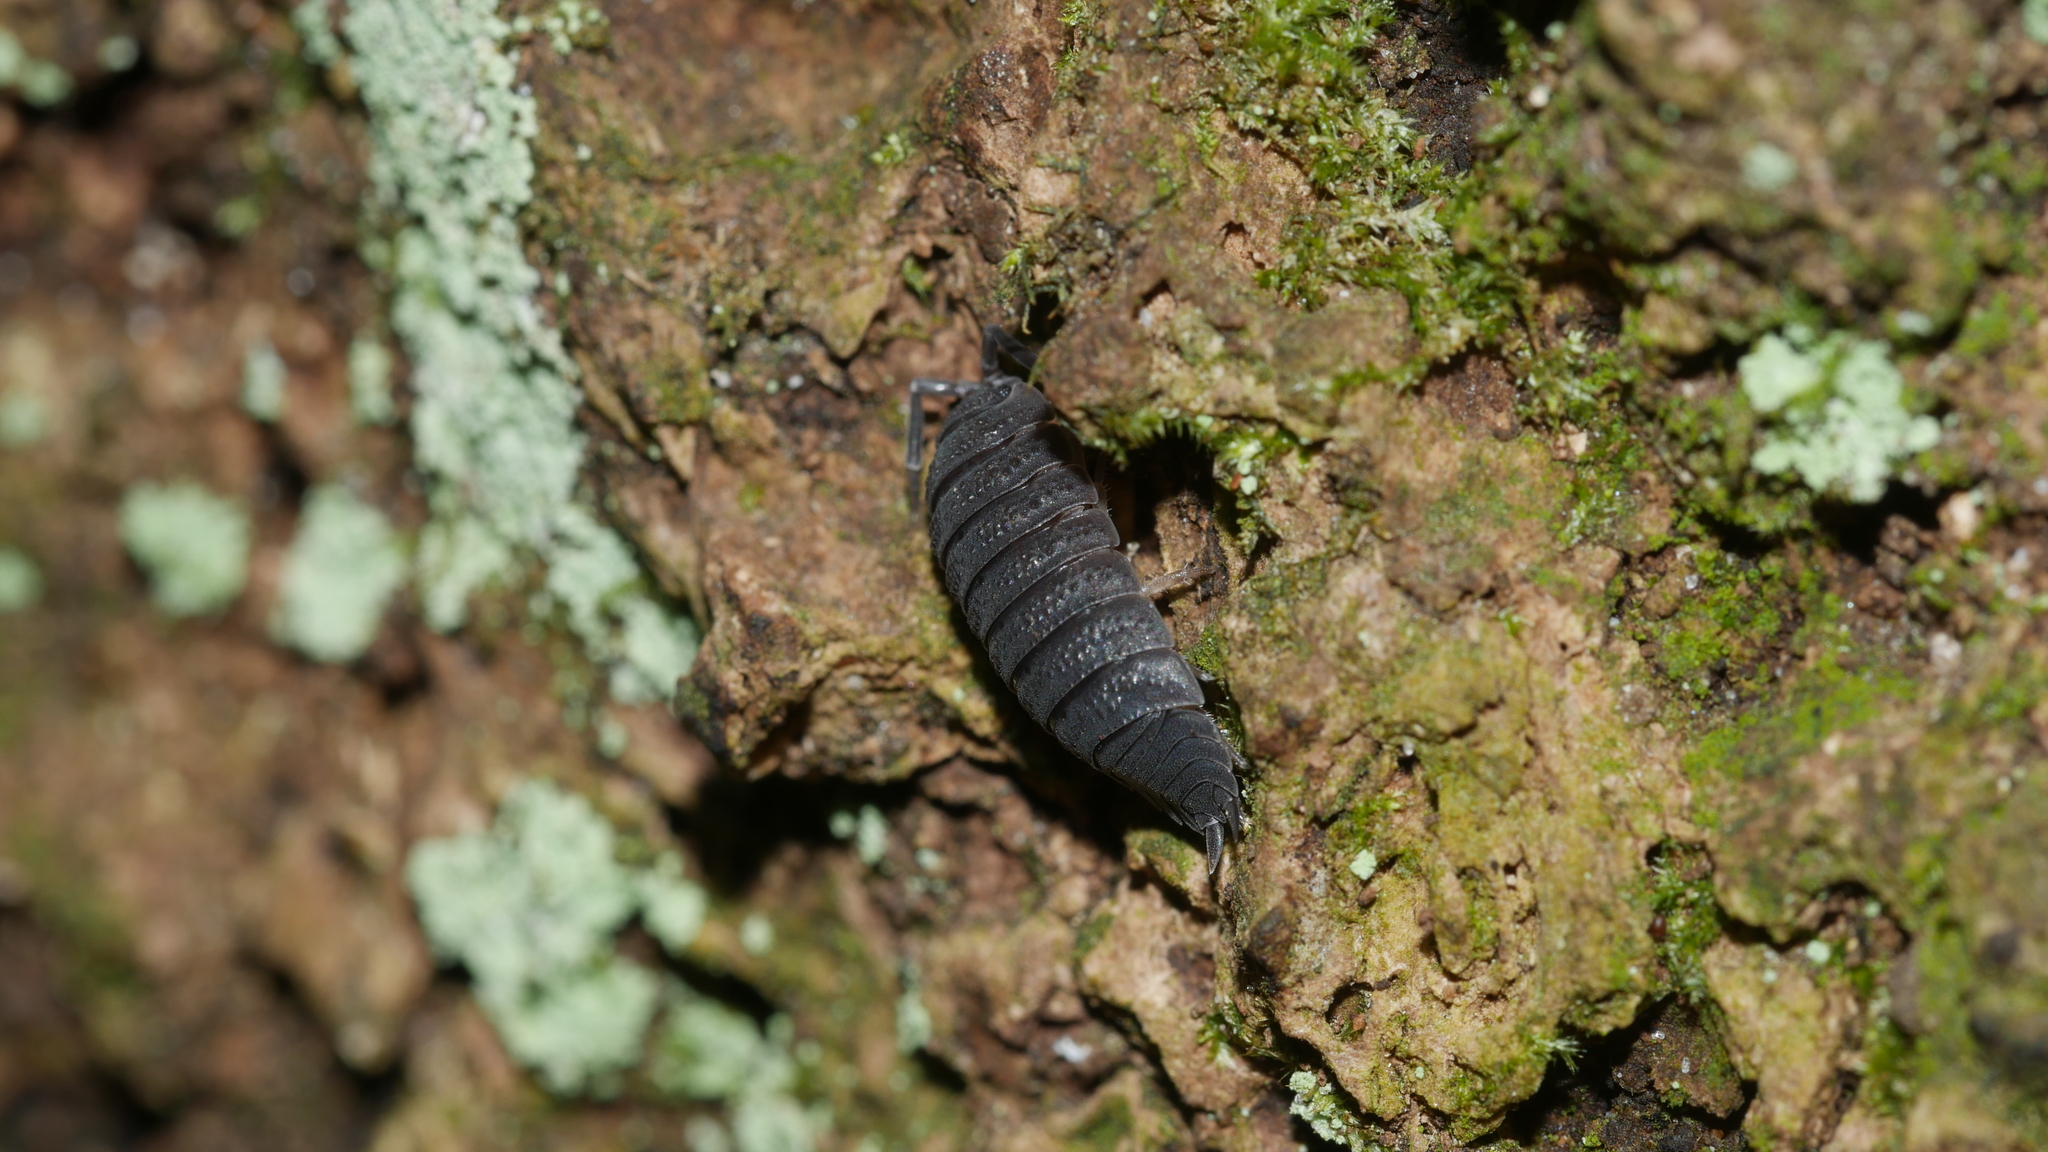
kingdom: Animalia
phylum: Arthropoda
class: Malacostraca
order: Isopoda
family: Porcellionidae
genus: Porcellio
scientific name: Porcellio scaber
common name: Common rough woodlouse
